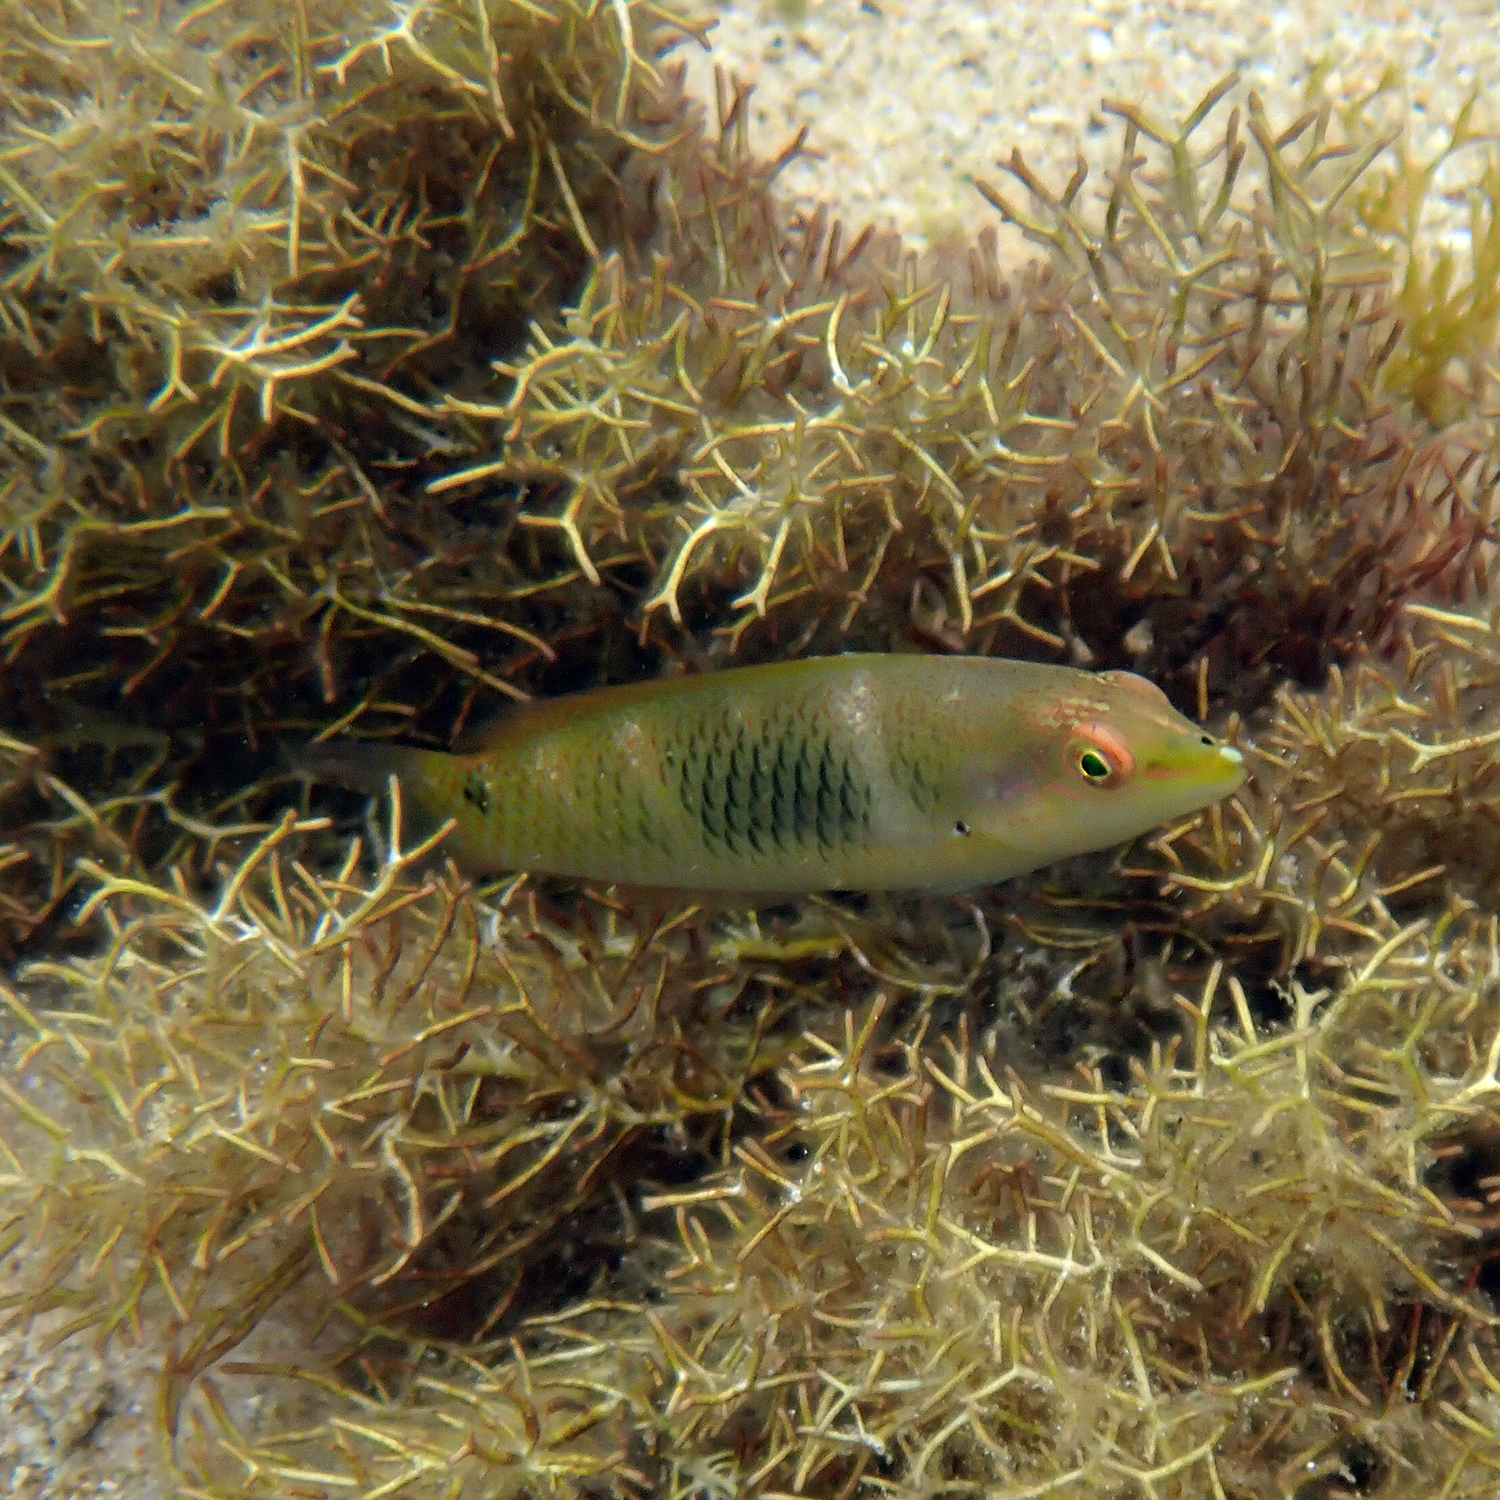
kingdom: Animalia
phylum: Chordata
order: Perciformes
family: Labridae
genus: Halichoeres
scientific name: Halichoeres trimaculatus
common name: Three-spot wrasse
